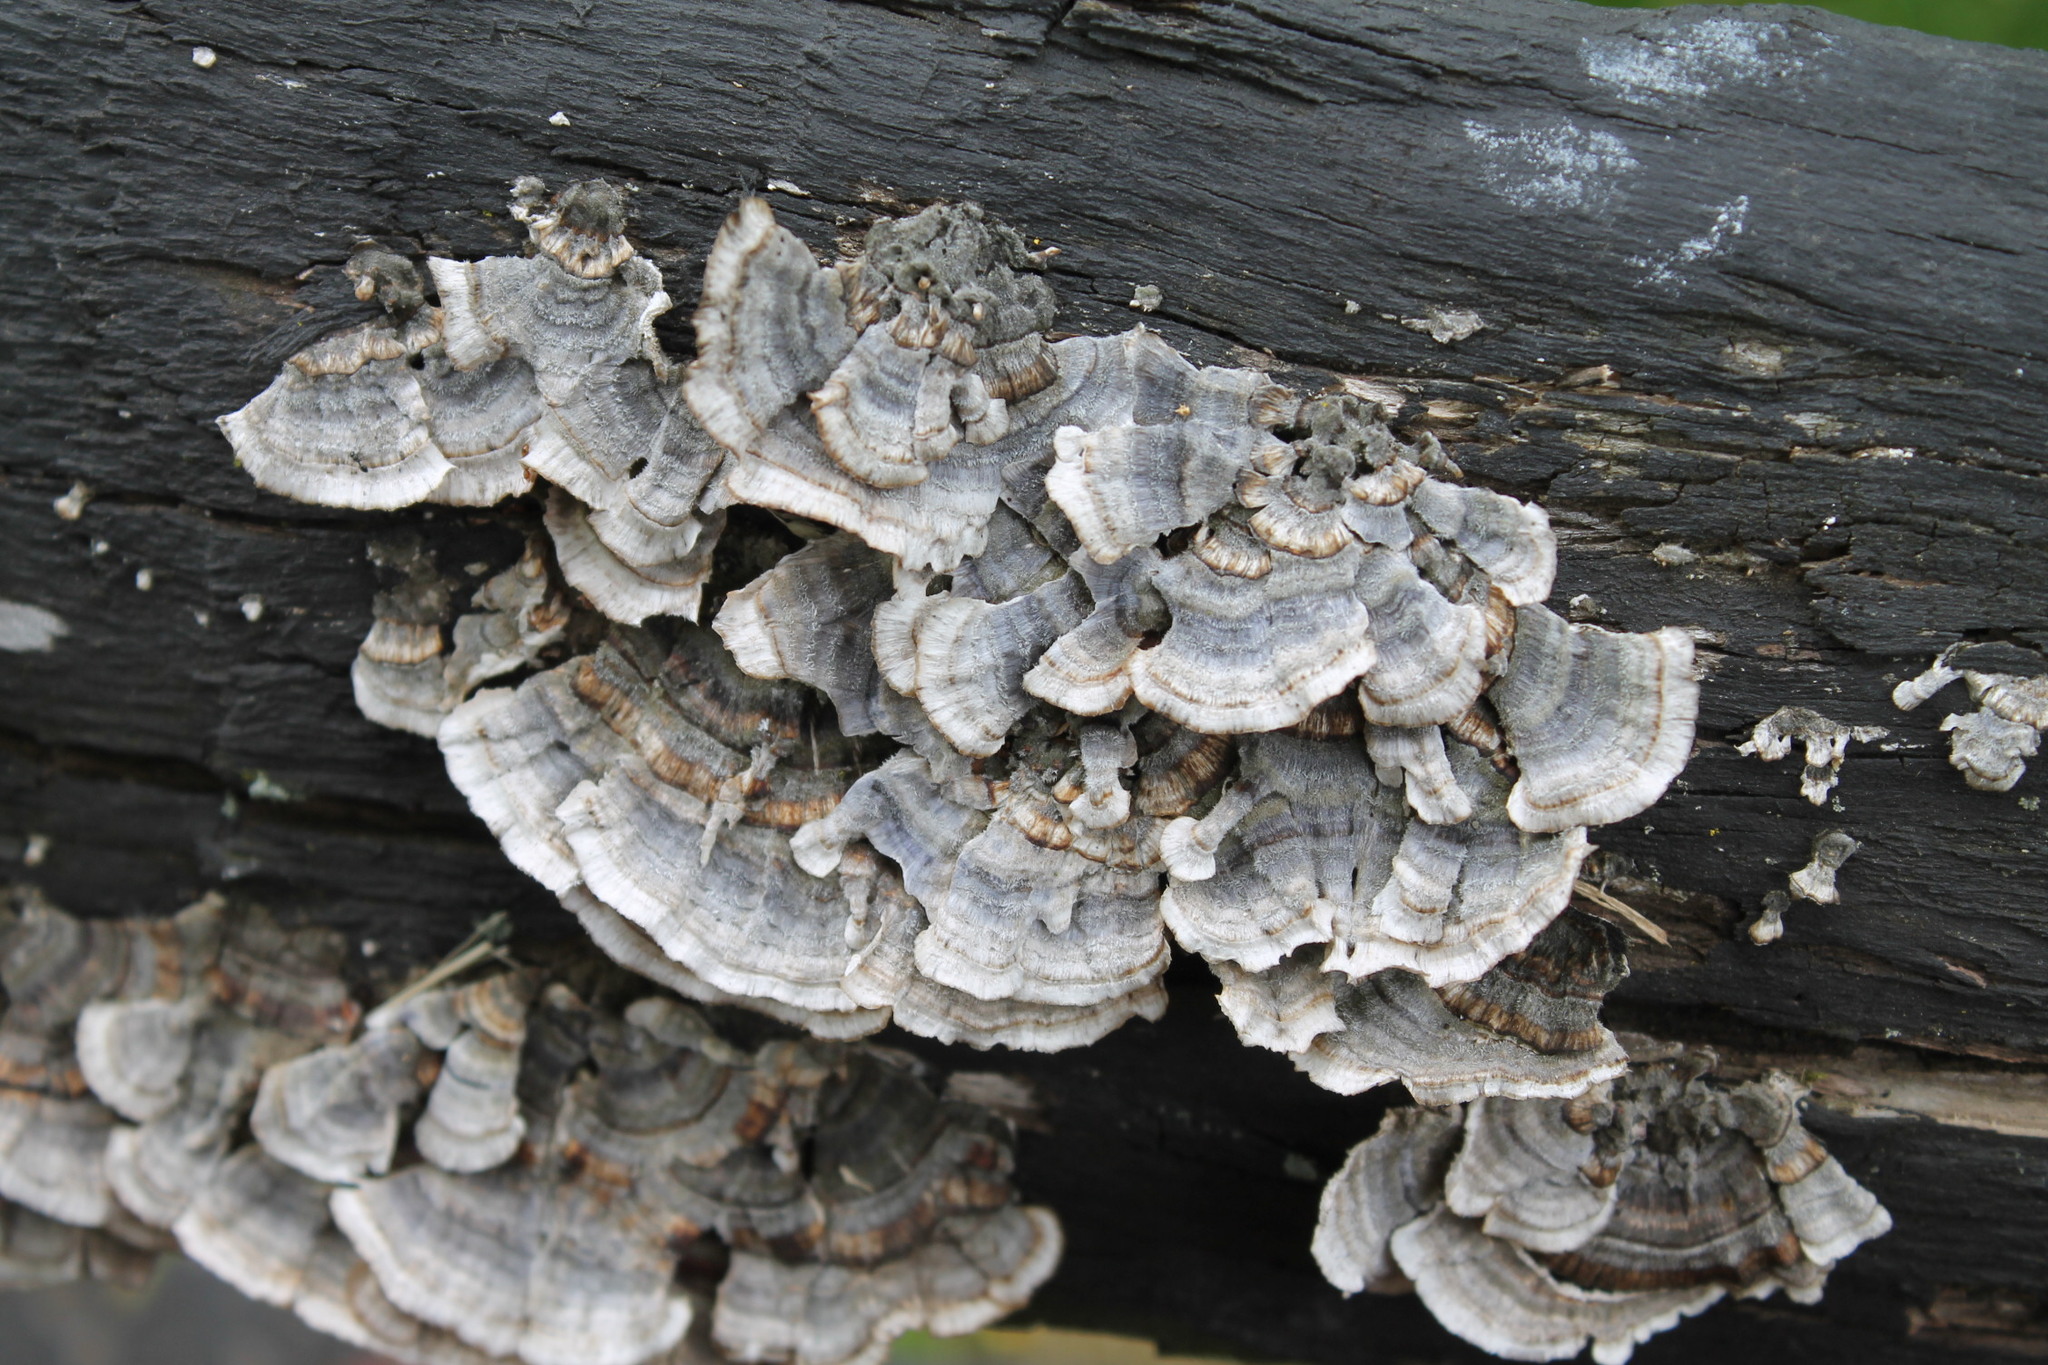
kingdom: Fungi
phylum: Basidiomycota
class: Agaricomycetes
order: Polyporales
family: Polyporaceae
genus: Trametes
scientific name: Trametes versicolor
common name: Turkeytail
